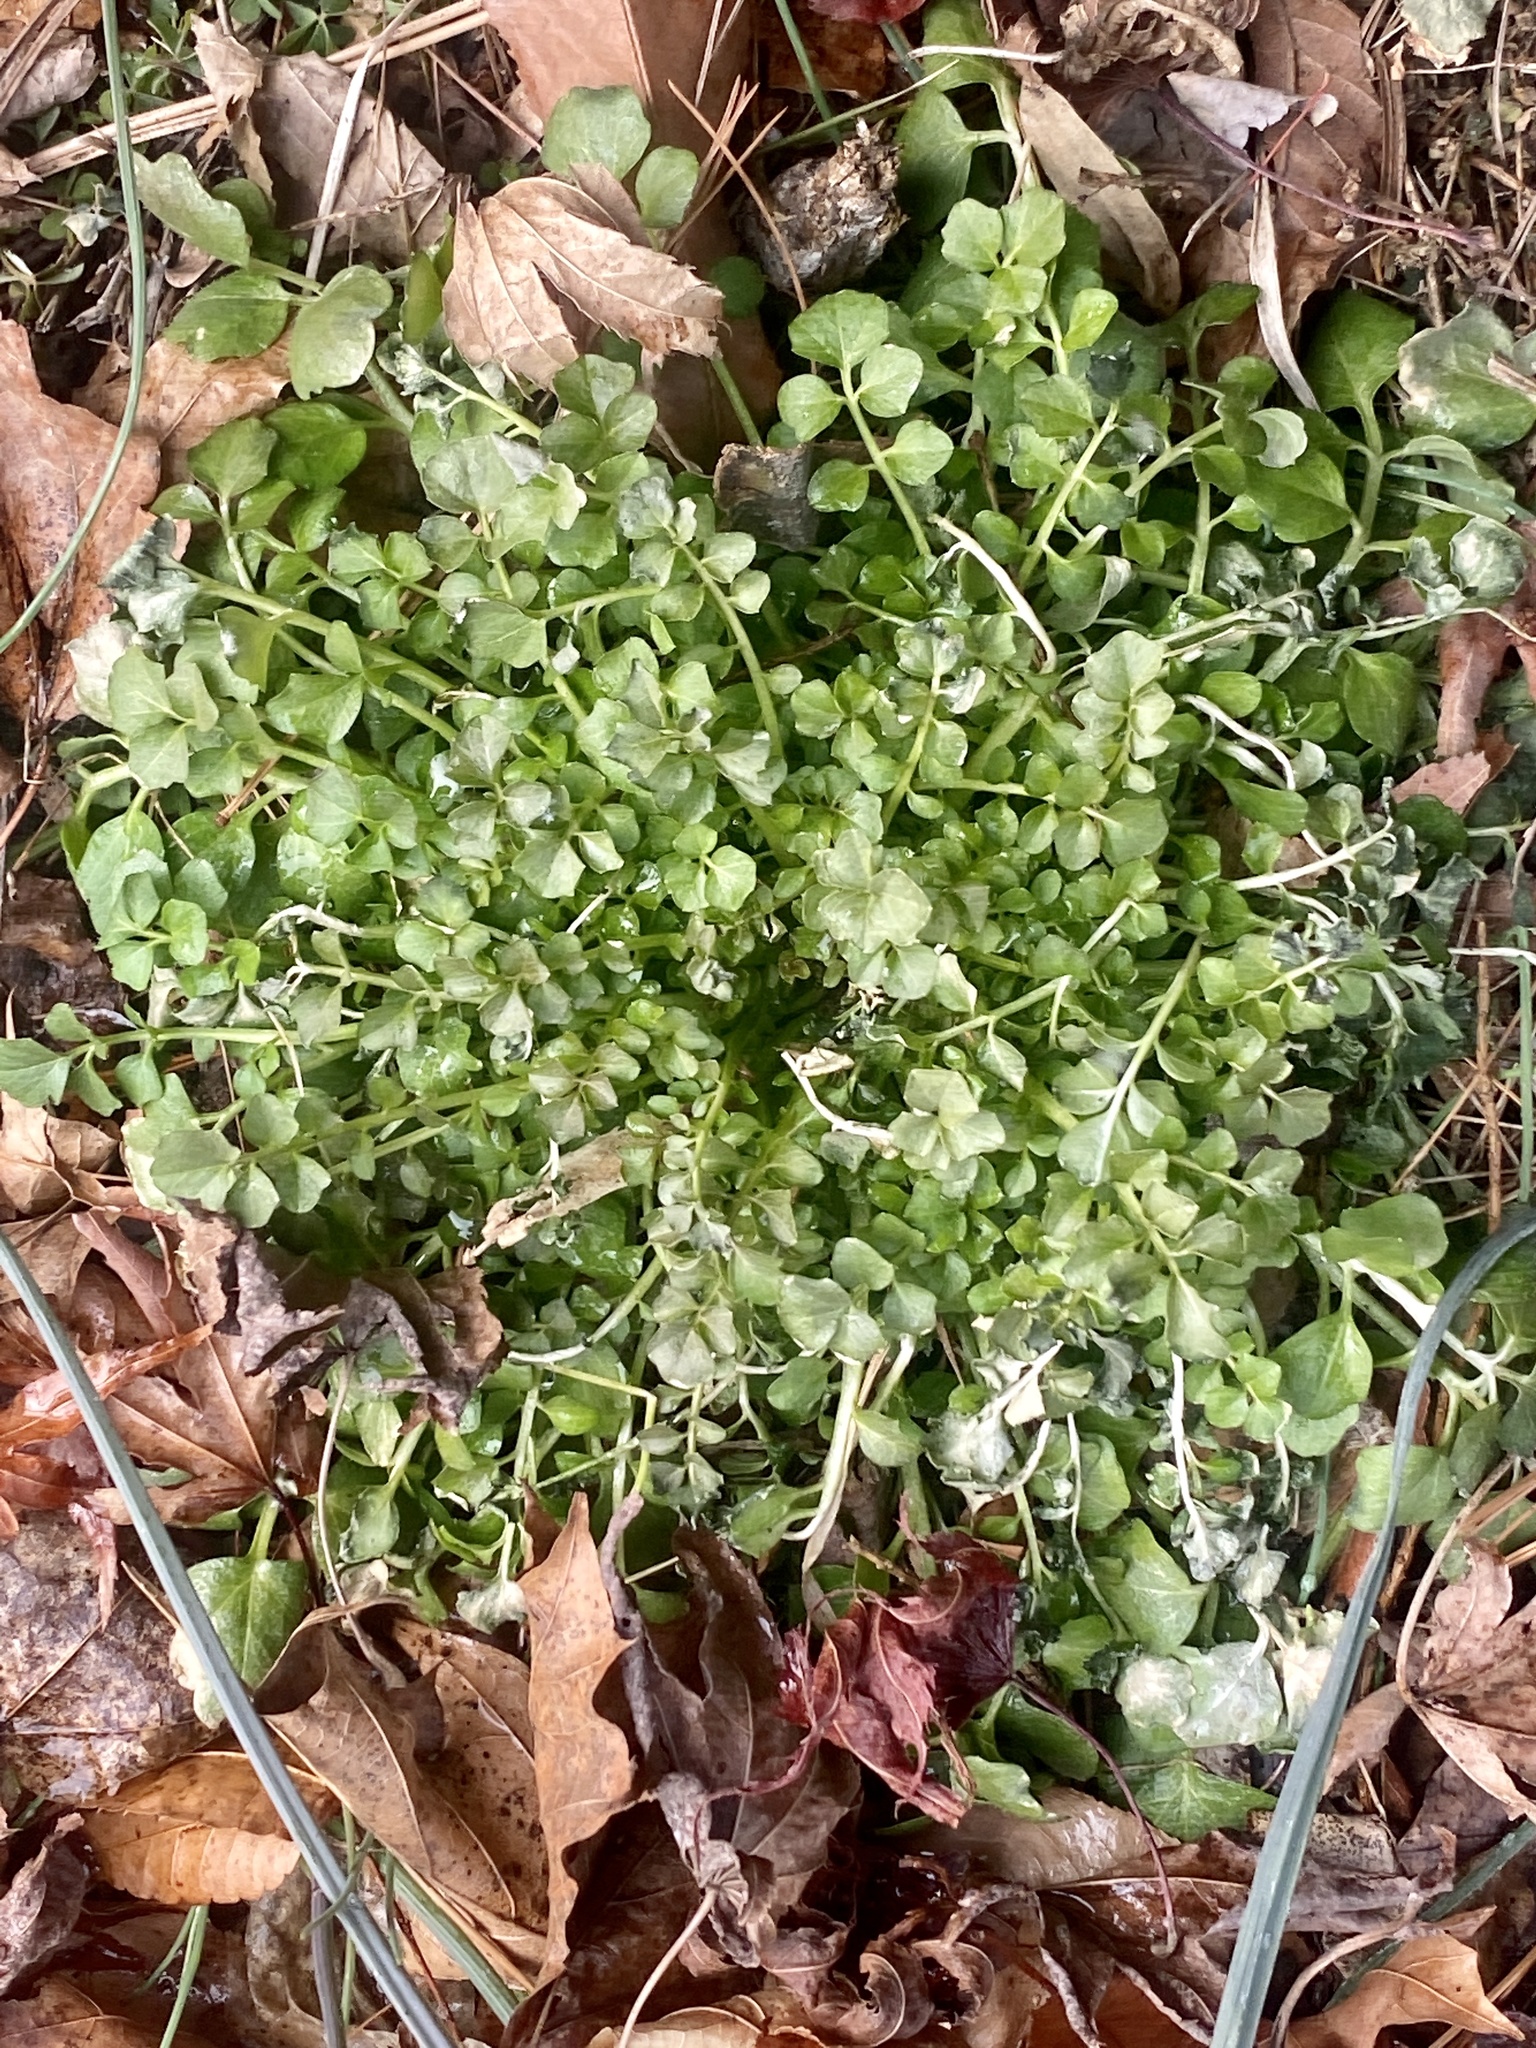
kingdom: Plantae
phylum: Tracheophyta
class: Magnoliopsida
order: Brassicales
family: Brassicaceae
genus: Cardamine
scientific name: Cardamine hirsuta
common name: Hairy bittercress
